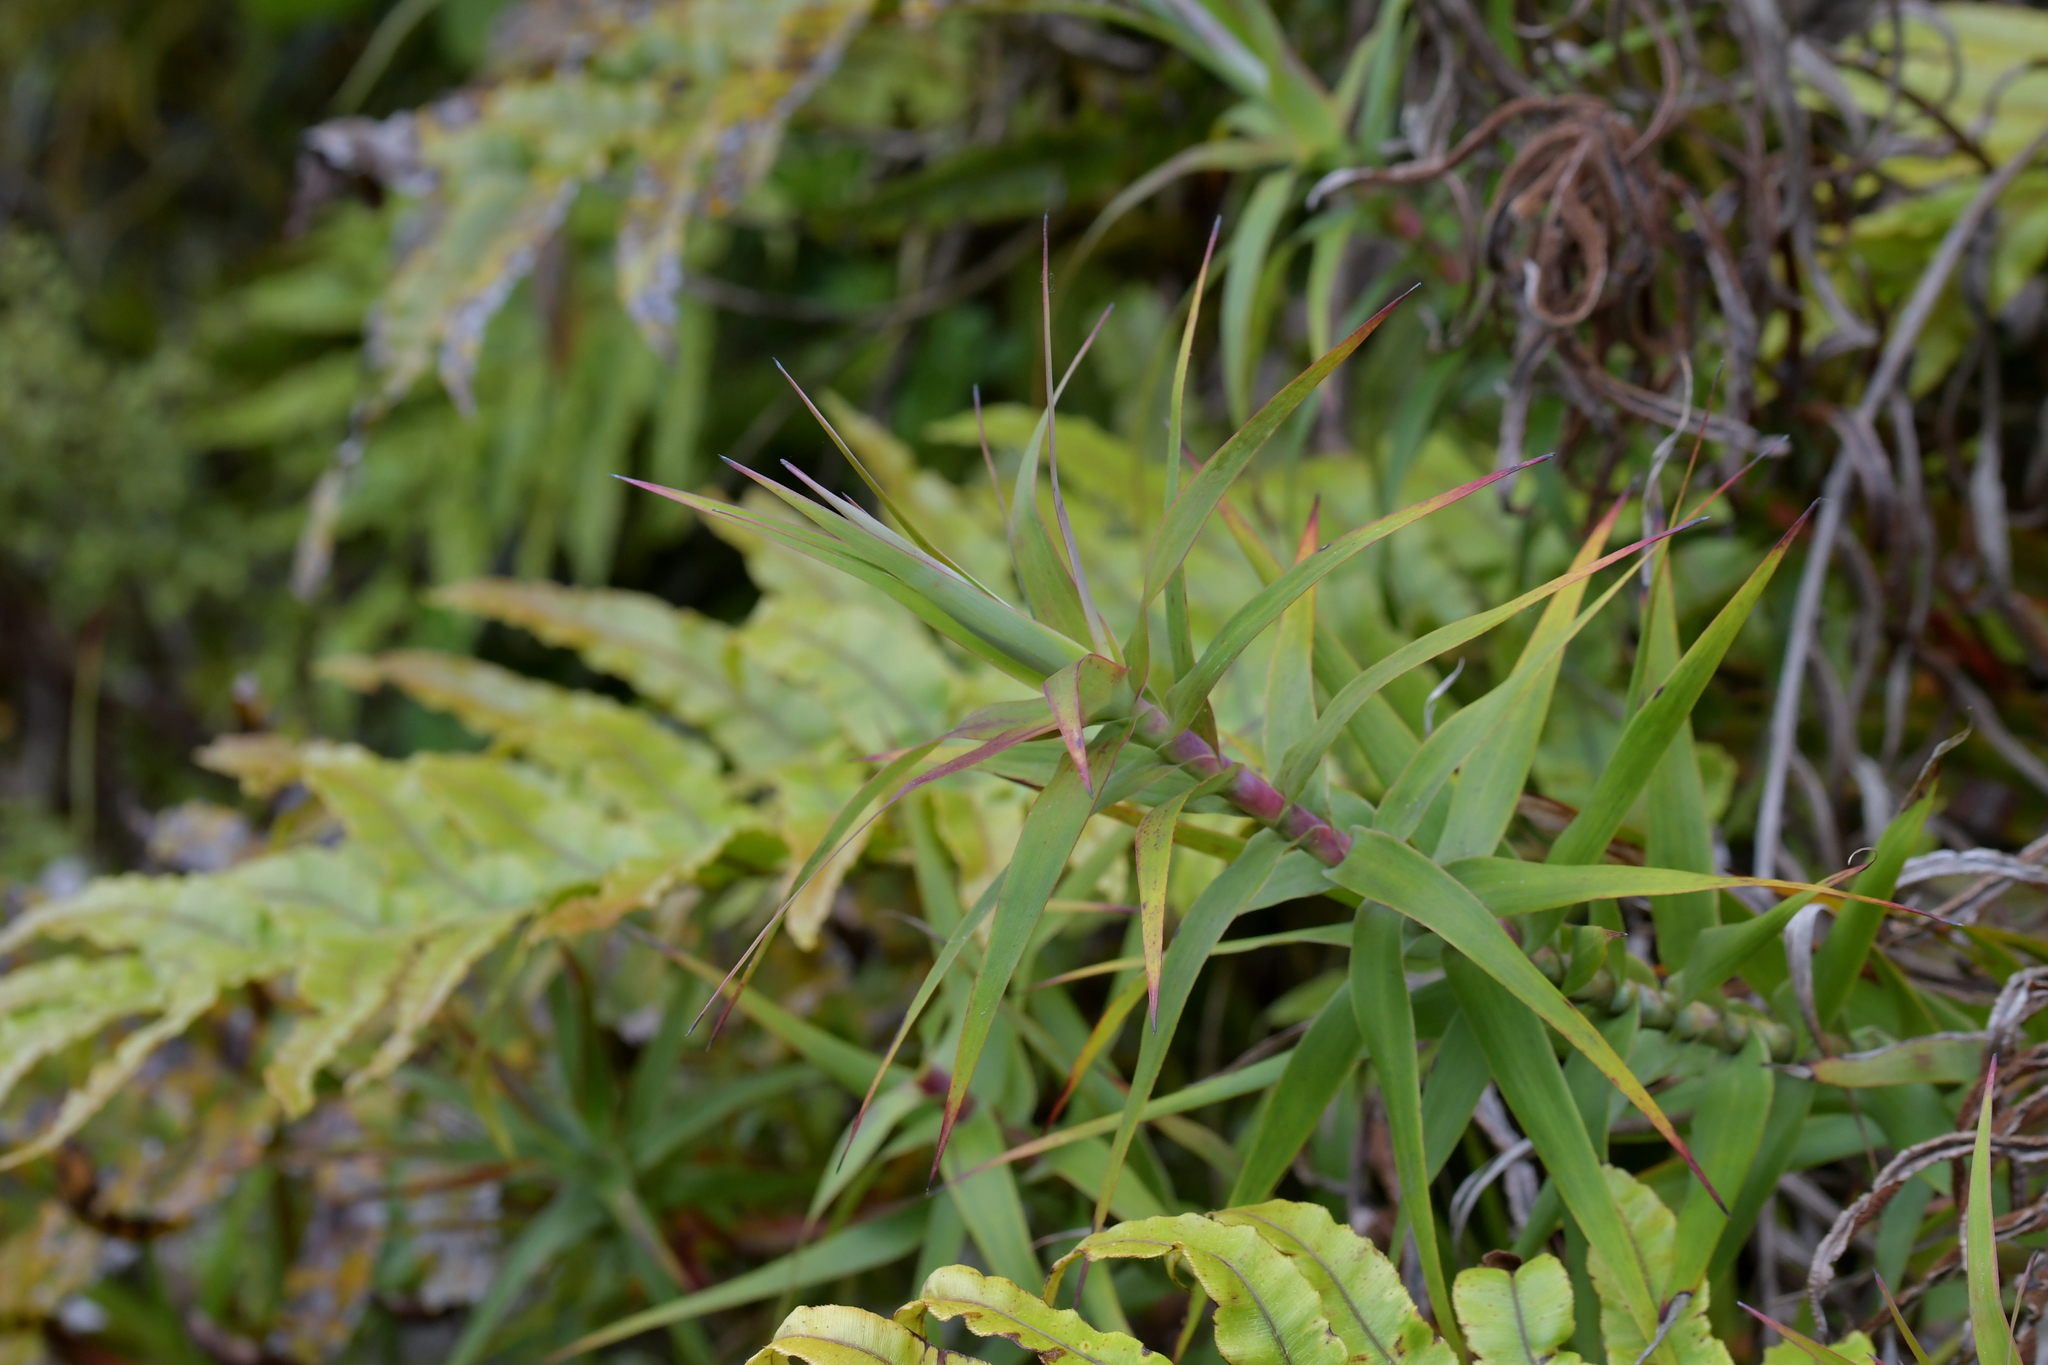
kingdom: Plantae
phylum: Tracheophyta
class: Magnoliopsida
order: Ericales
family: Ericaceae
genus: Dracophyllum
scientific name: Dracophyllum strictum
